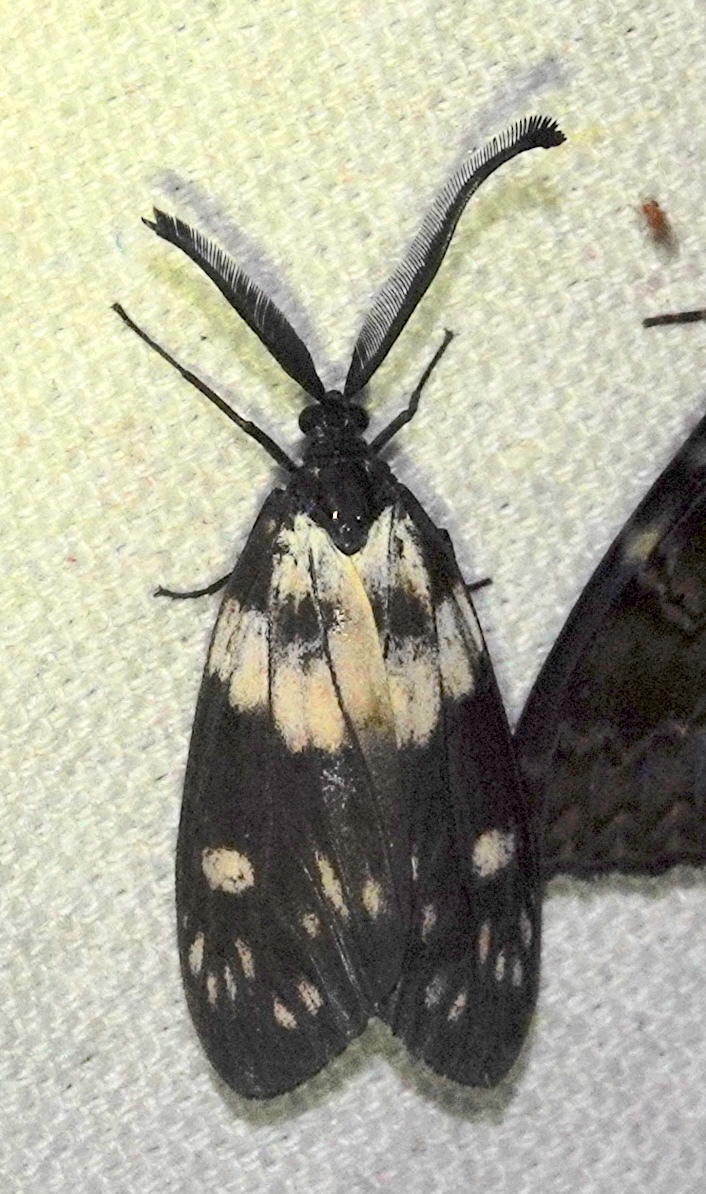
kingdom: Animalia
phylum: Arthropoda
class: Insecta
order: Lepidoptera
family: Zygaenidae
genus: Eterusia
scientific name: Eterusia aedea
